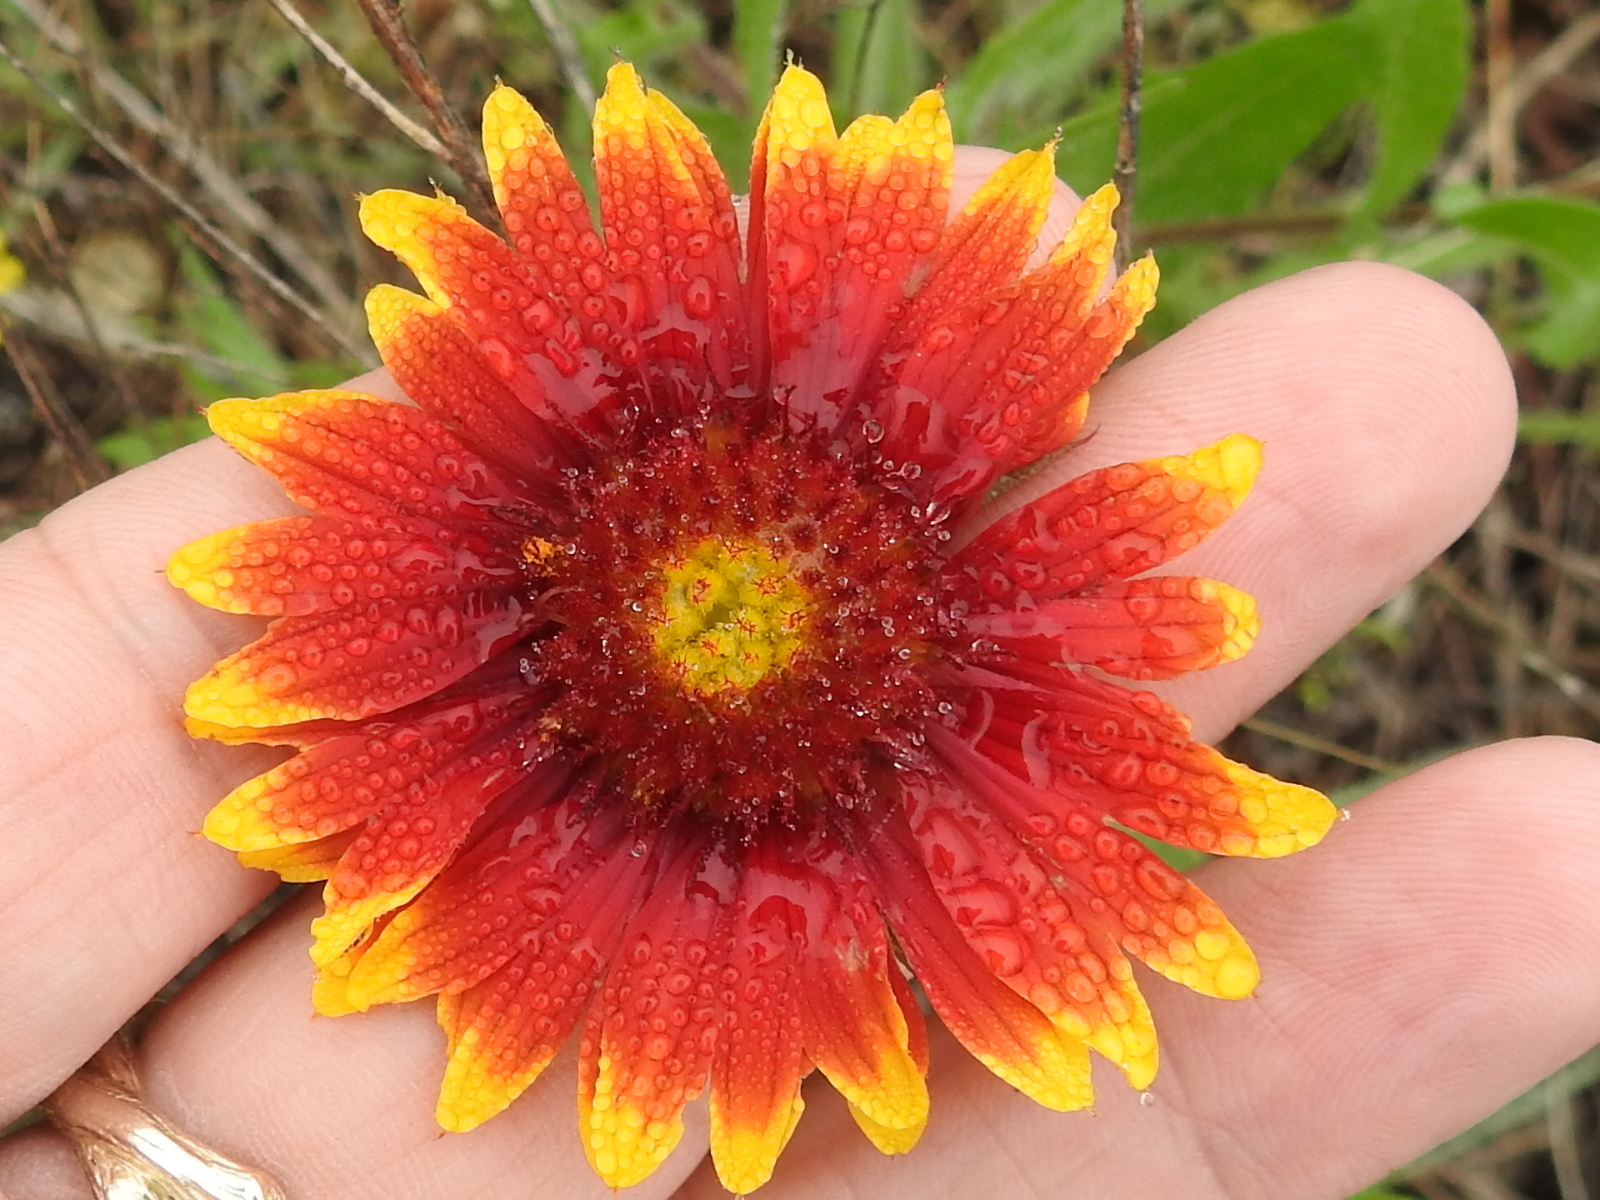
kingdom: Plantae
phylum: Tracheophyta
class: Magnoliopsida
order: Asterales
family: Asteraceae
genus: Gaillardia
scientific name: Gaillardia pulchella
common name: Firewheel
